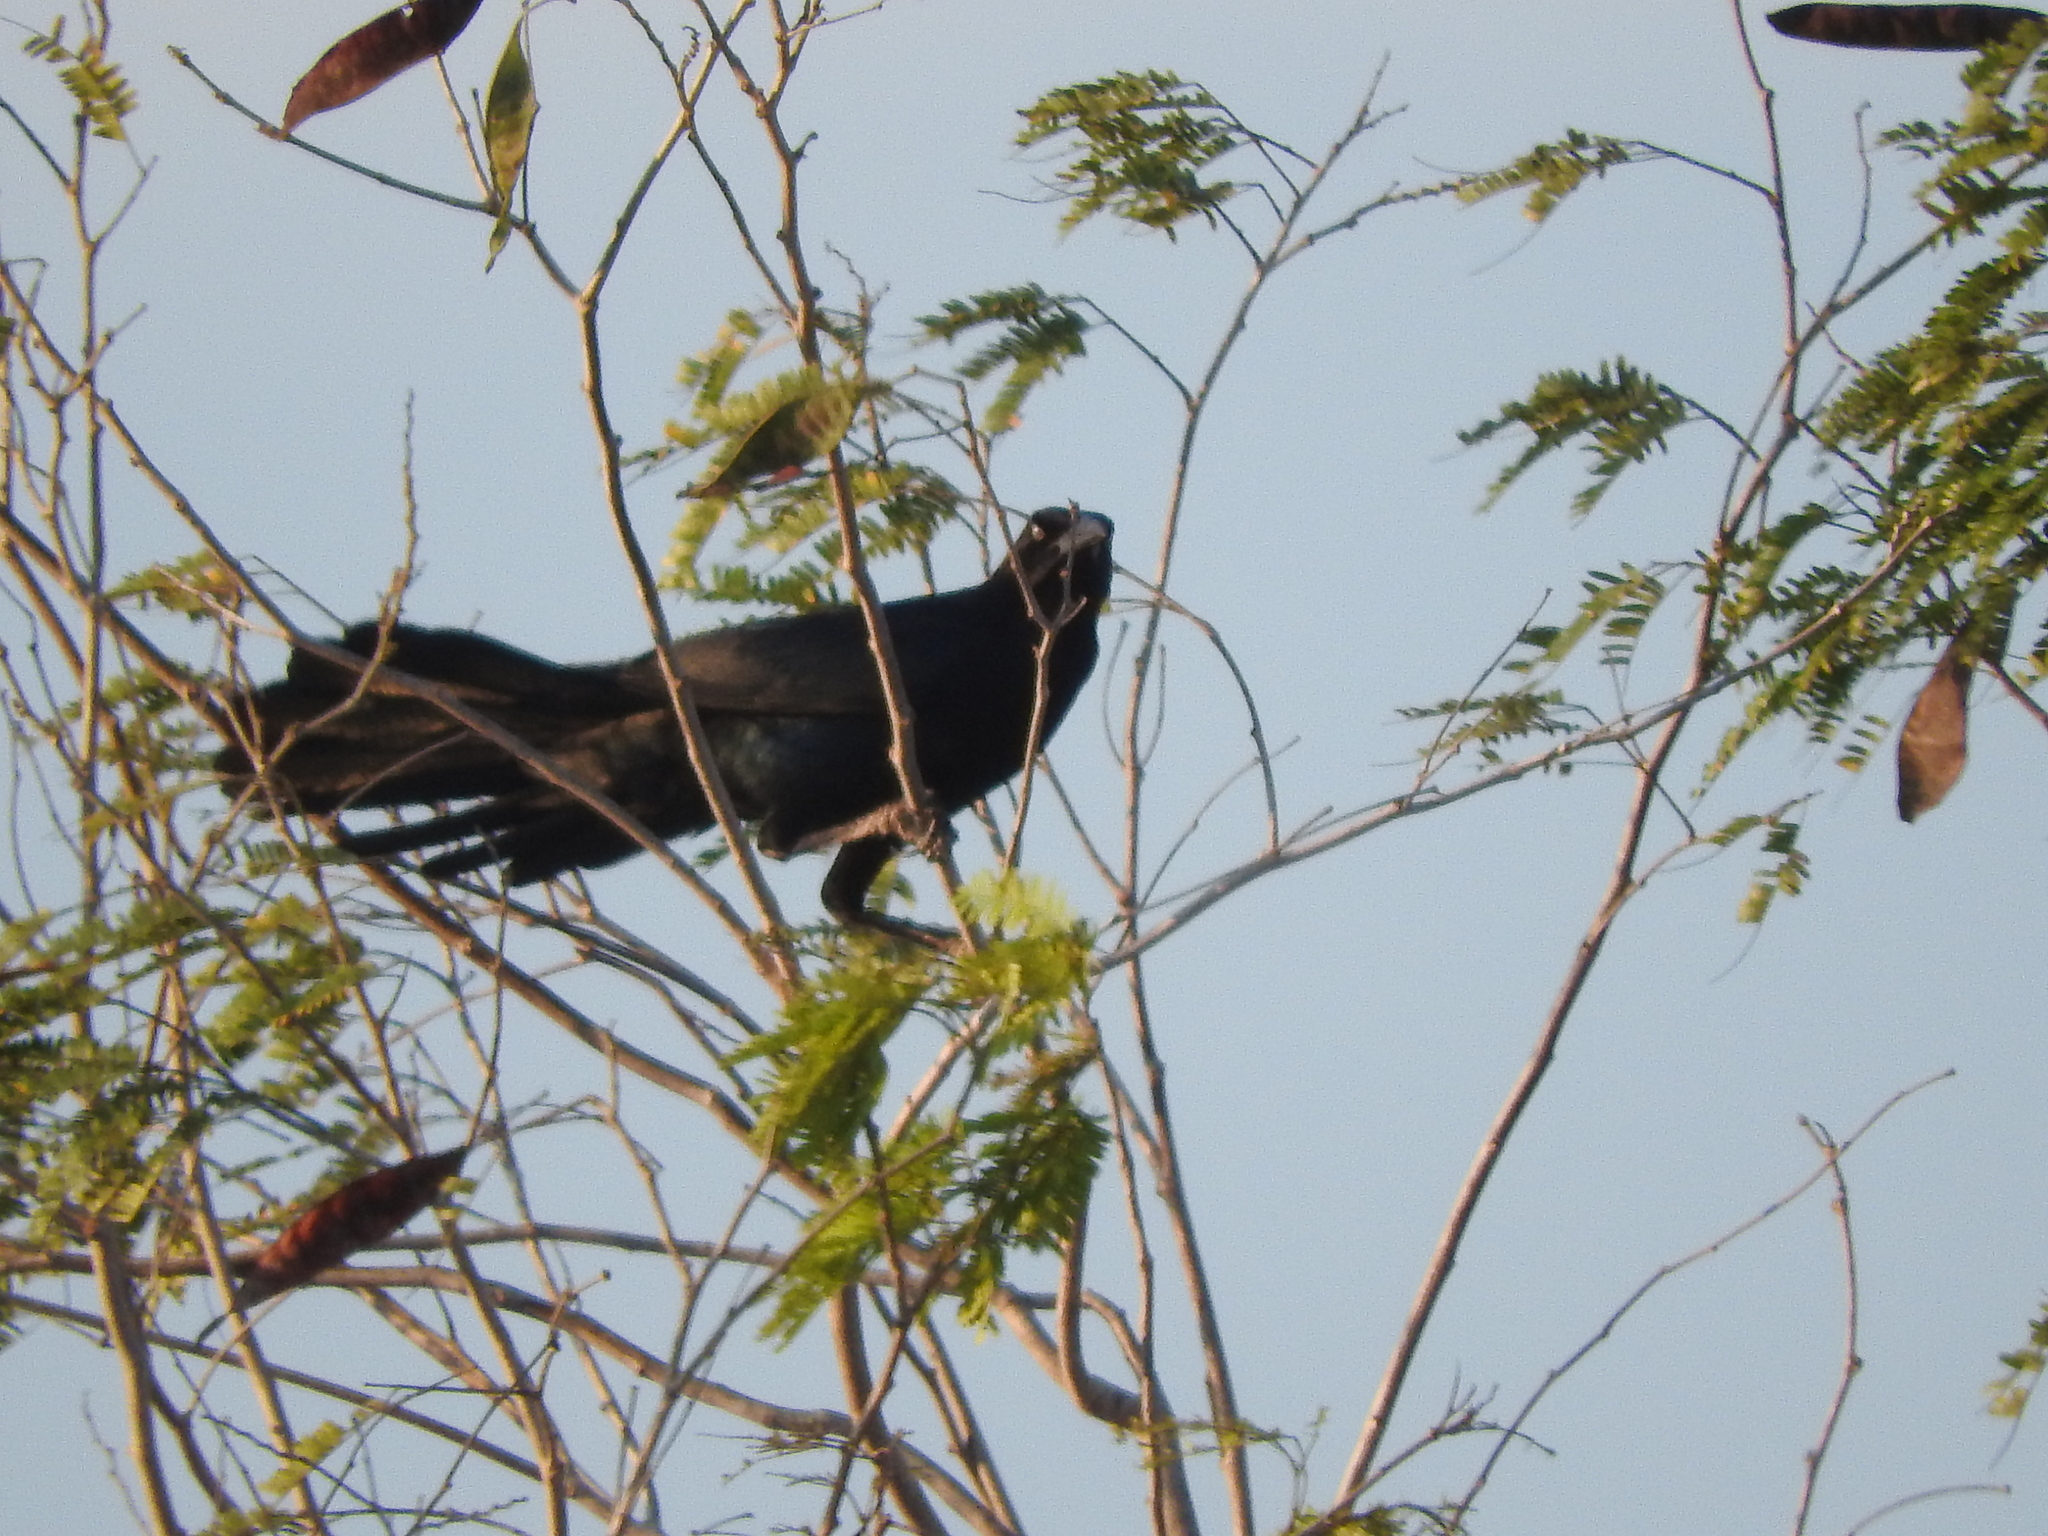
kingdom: Animalia
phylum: Chordata
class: Aves
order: Passeriformes
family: Icteridae
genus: Quiscalus
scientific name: Quiscalus mexicanus
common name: Great-tailed grackle
